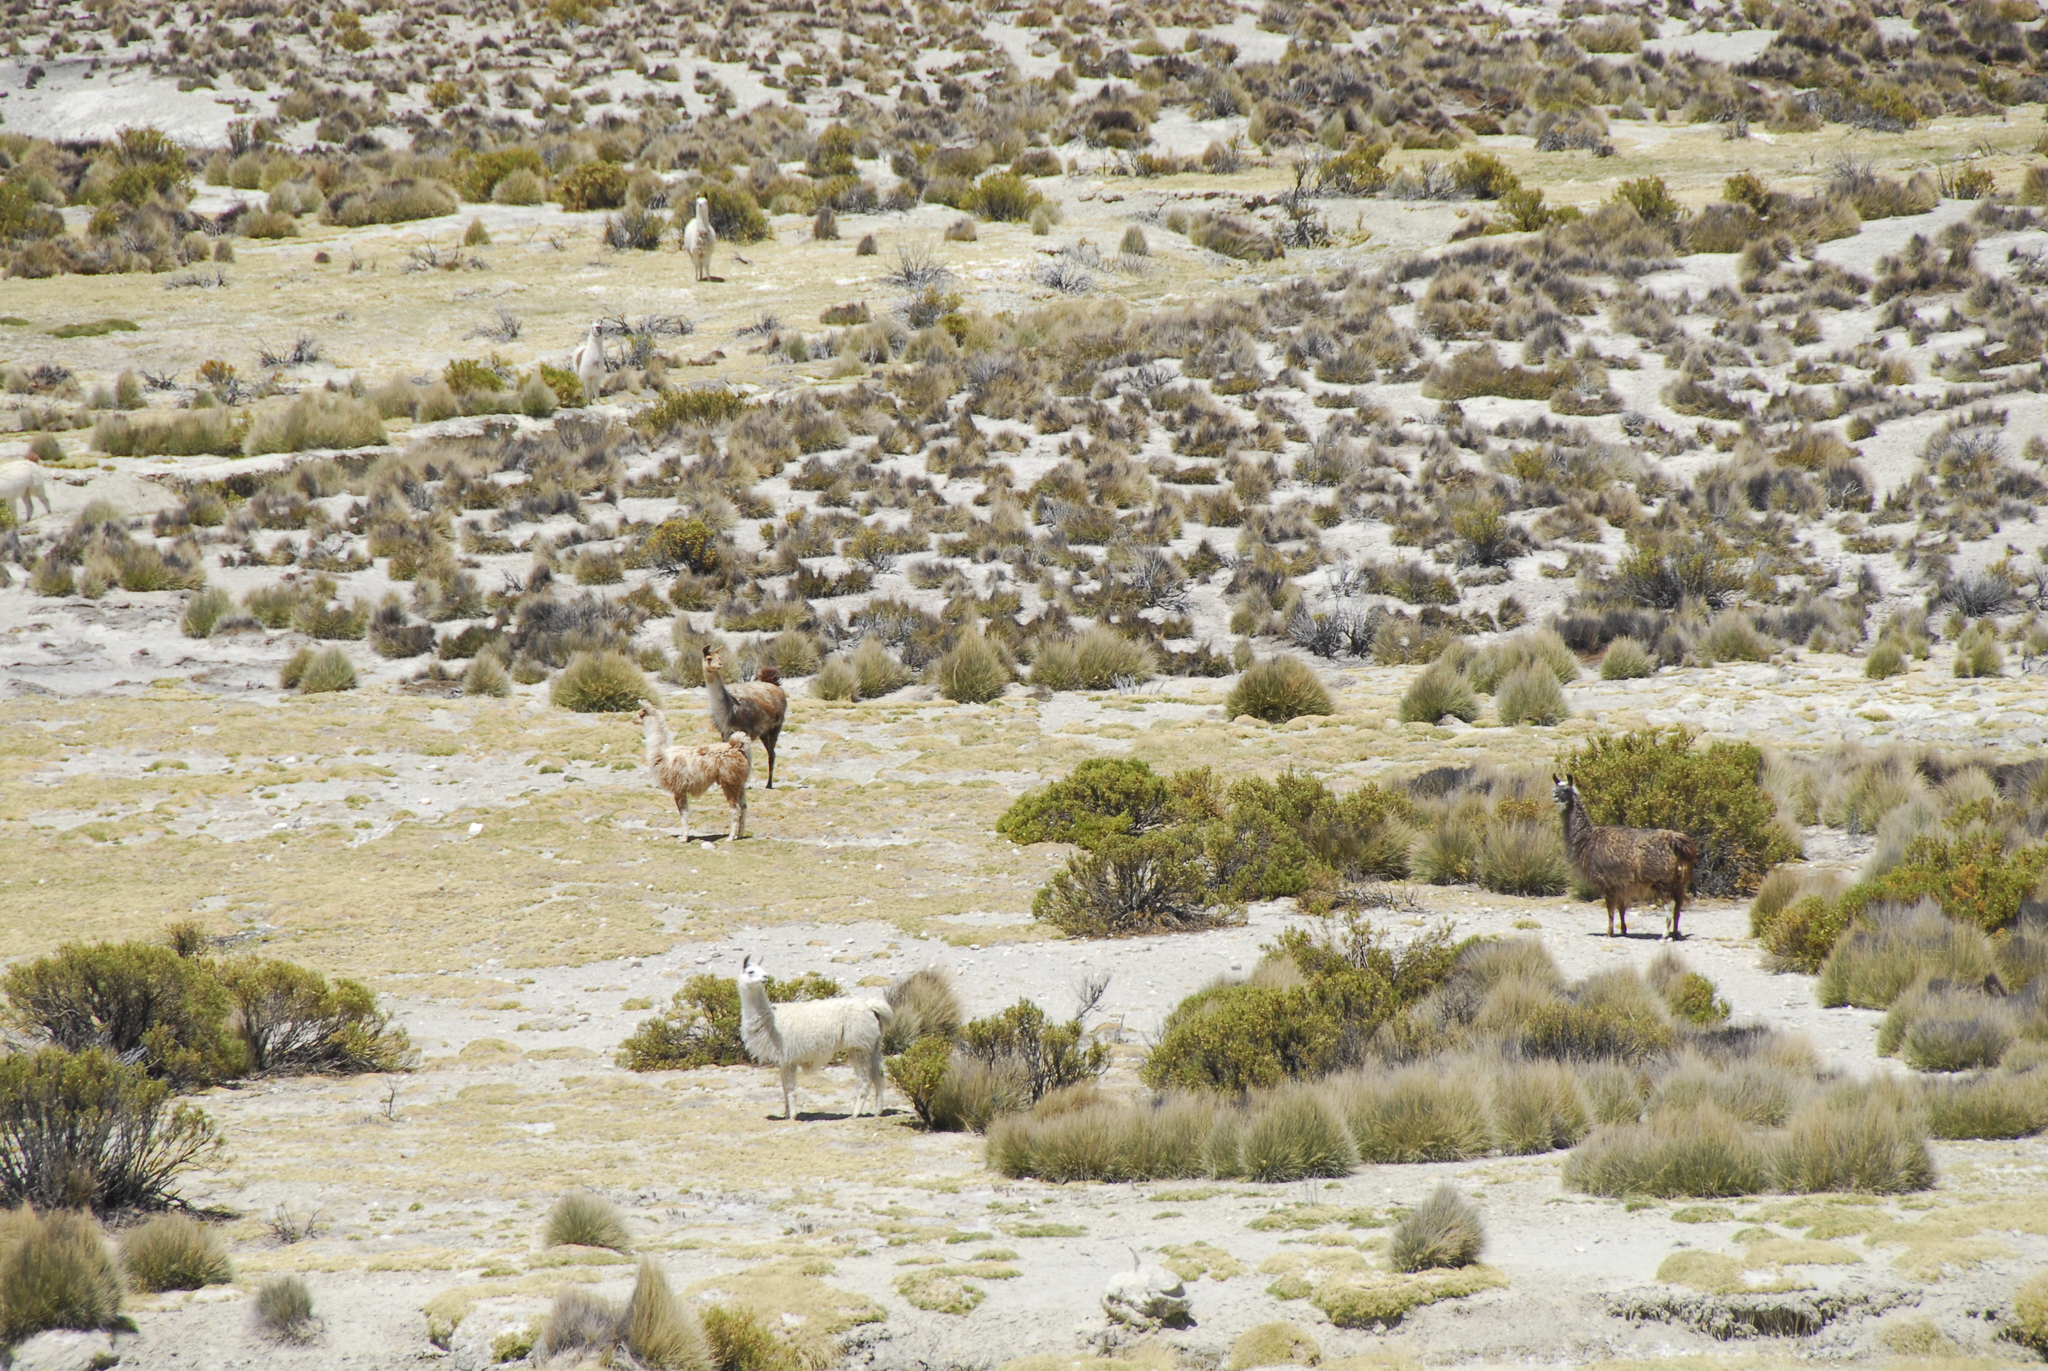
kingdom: Animalia
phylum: Chordata
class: Mammalia
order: Artiodactyla
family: Camelidae
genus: Lama
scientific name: Lama glama
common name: Llama
